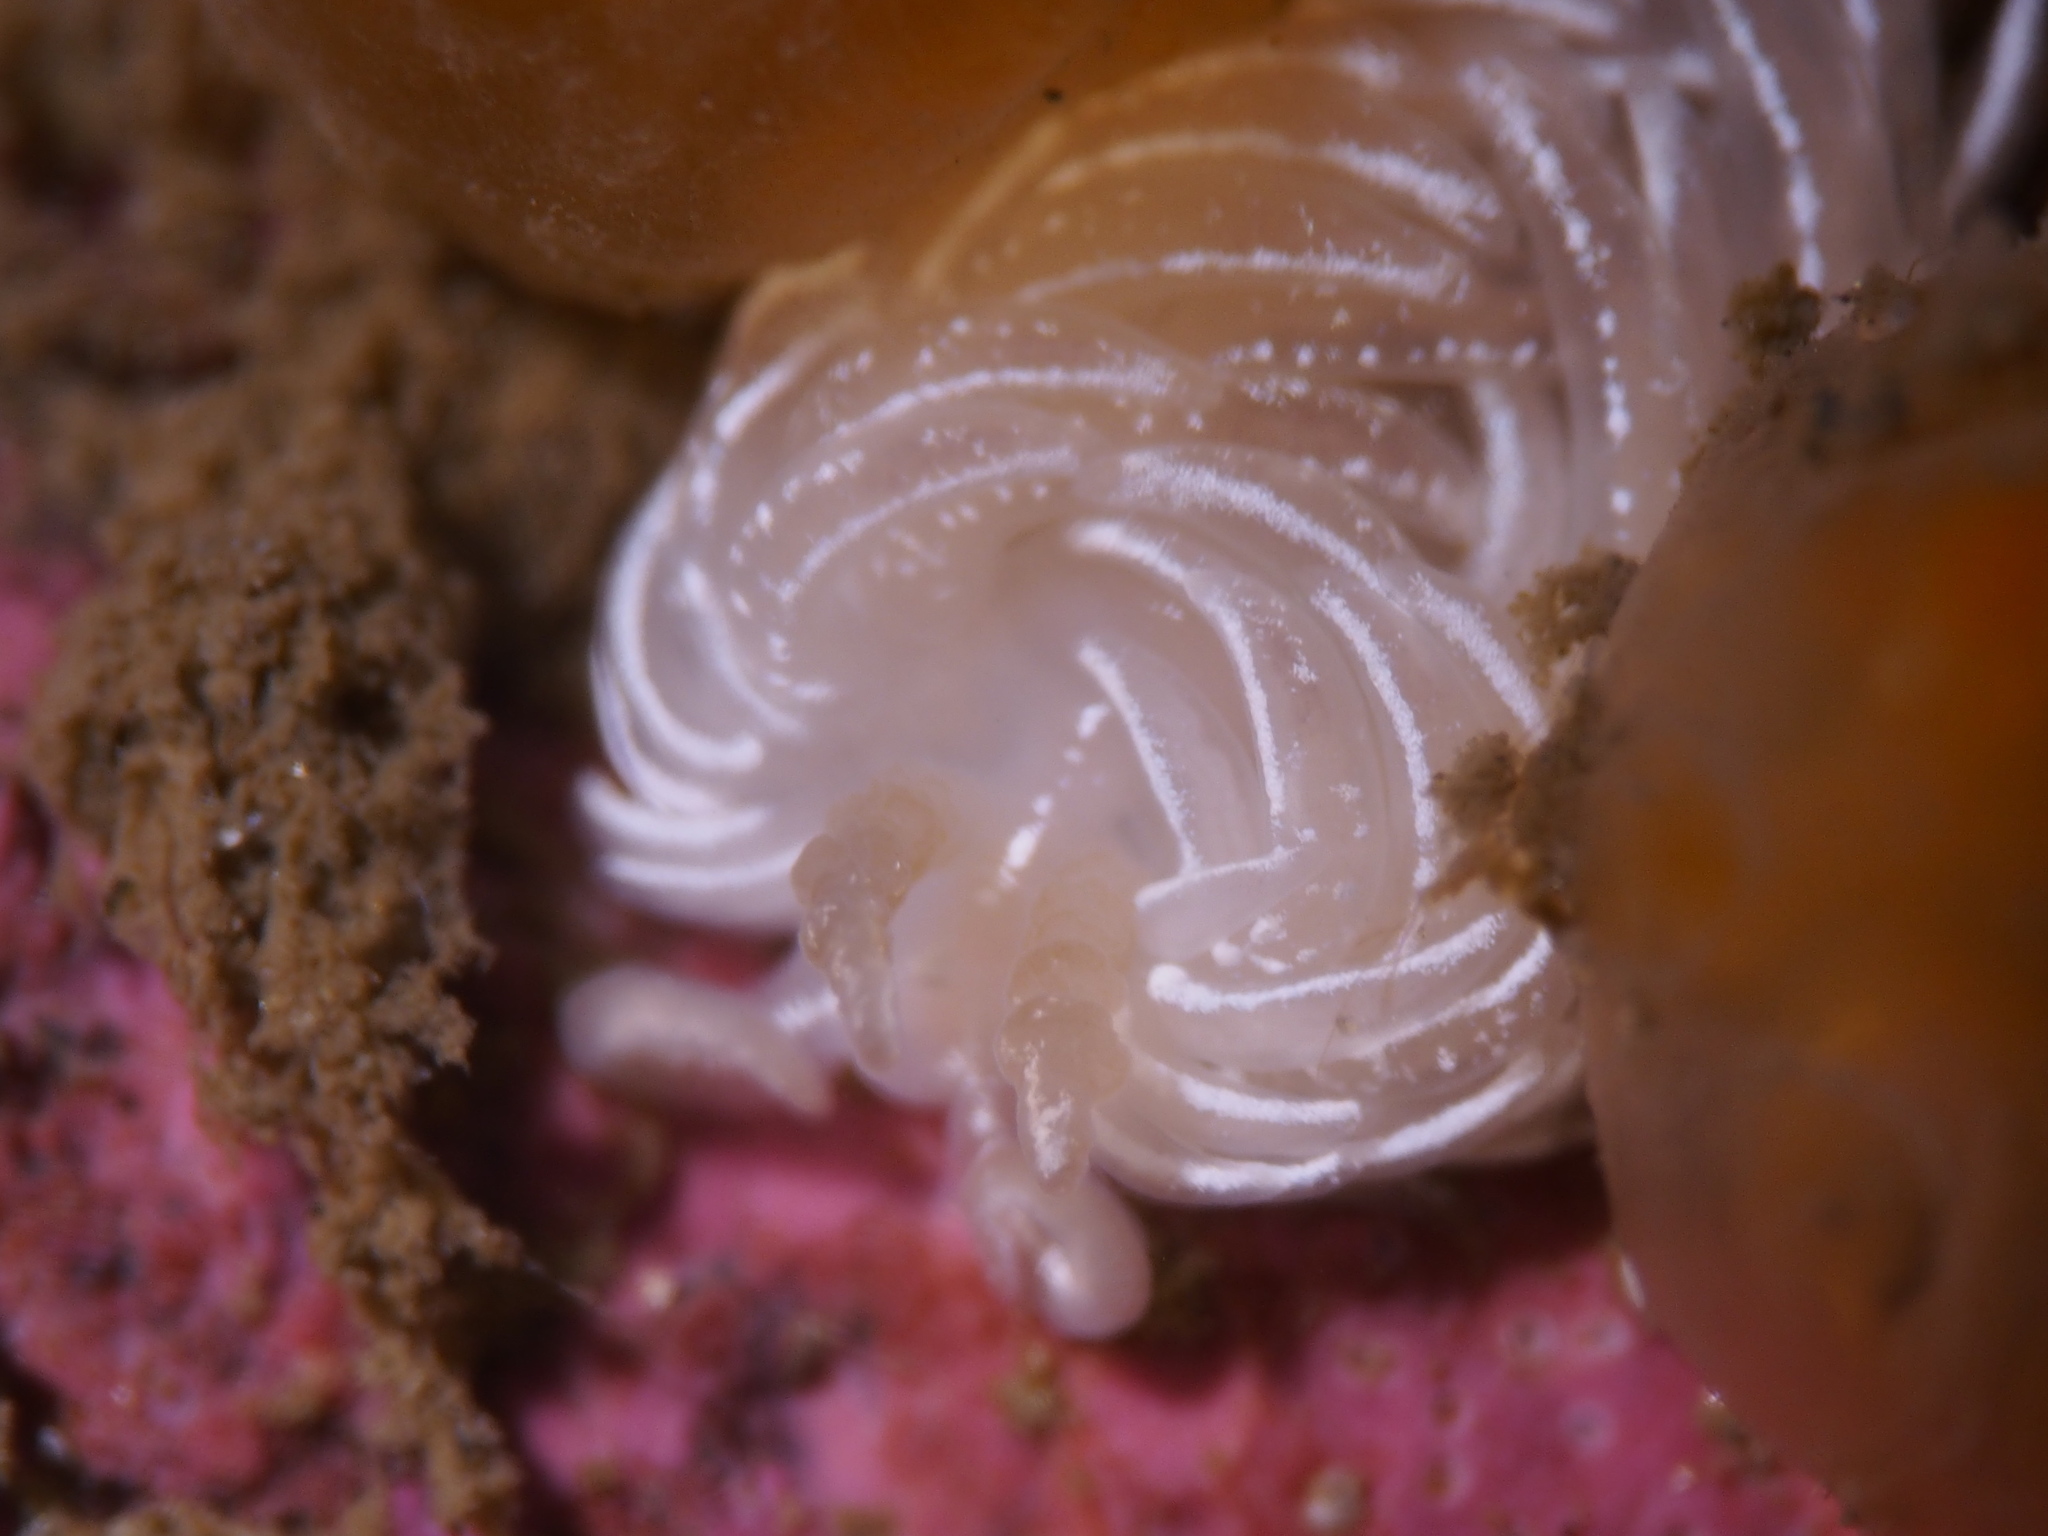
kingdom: Animalia
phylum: Mollusca
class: Gastropoda
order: Nudibranchia
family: Facelinidae
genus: Favorinus
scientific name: Favorinus blianus
